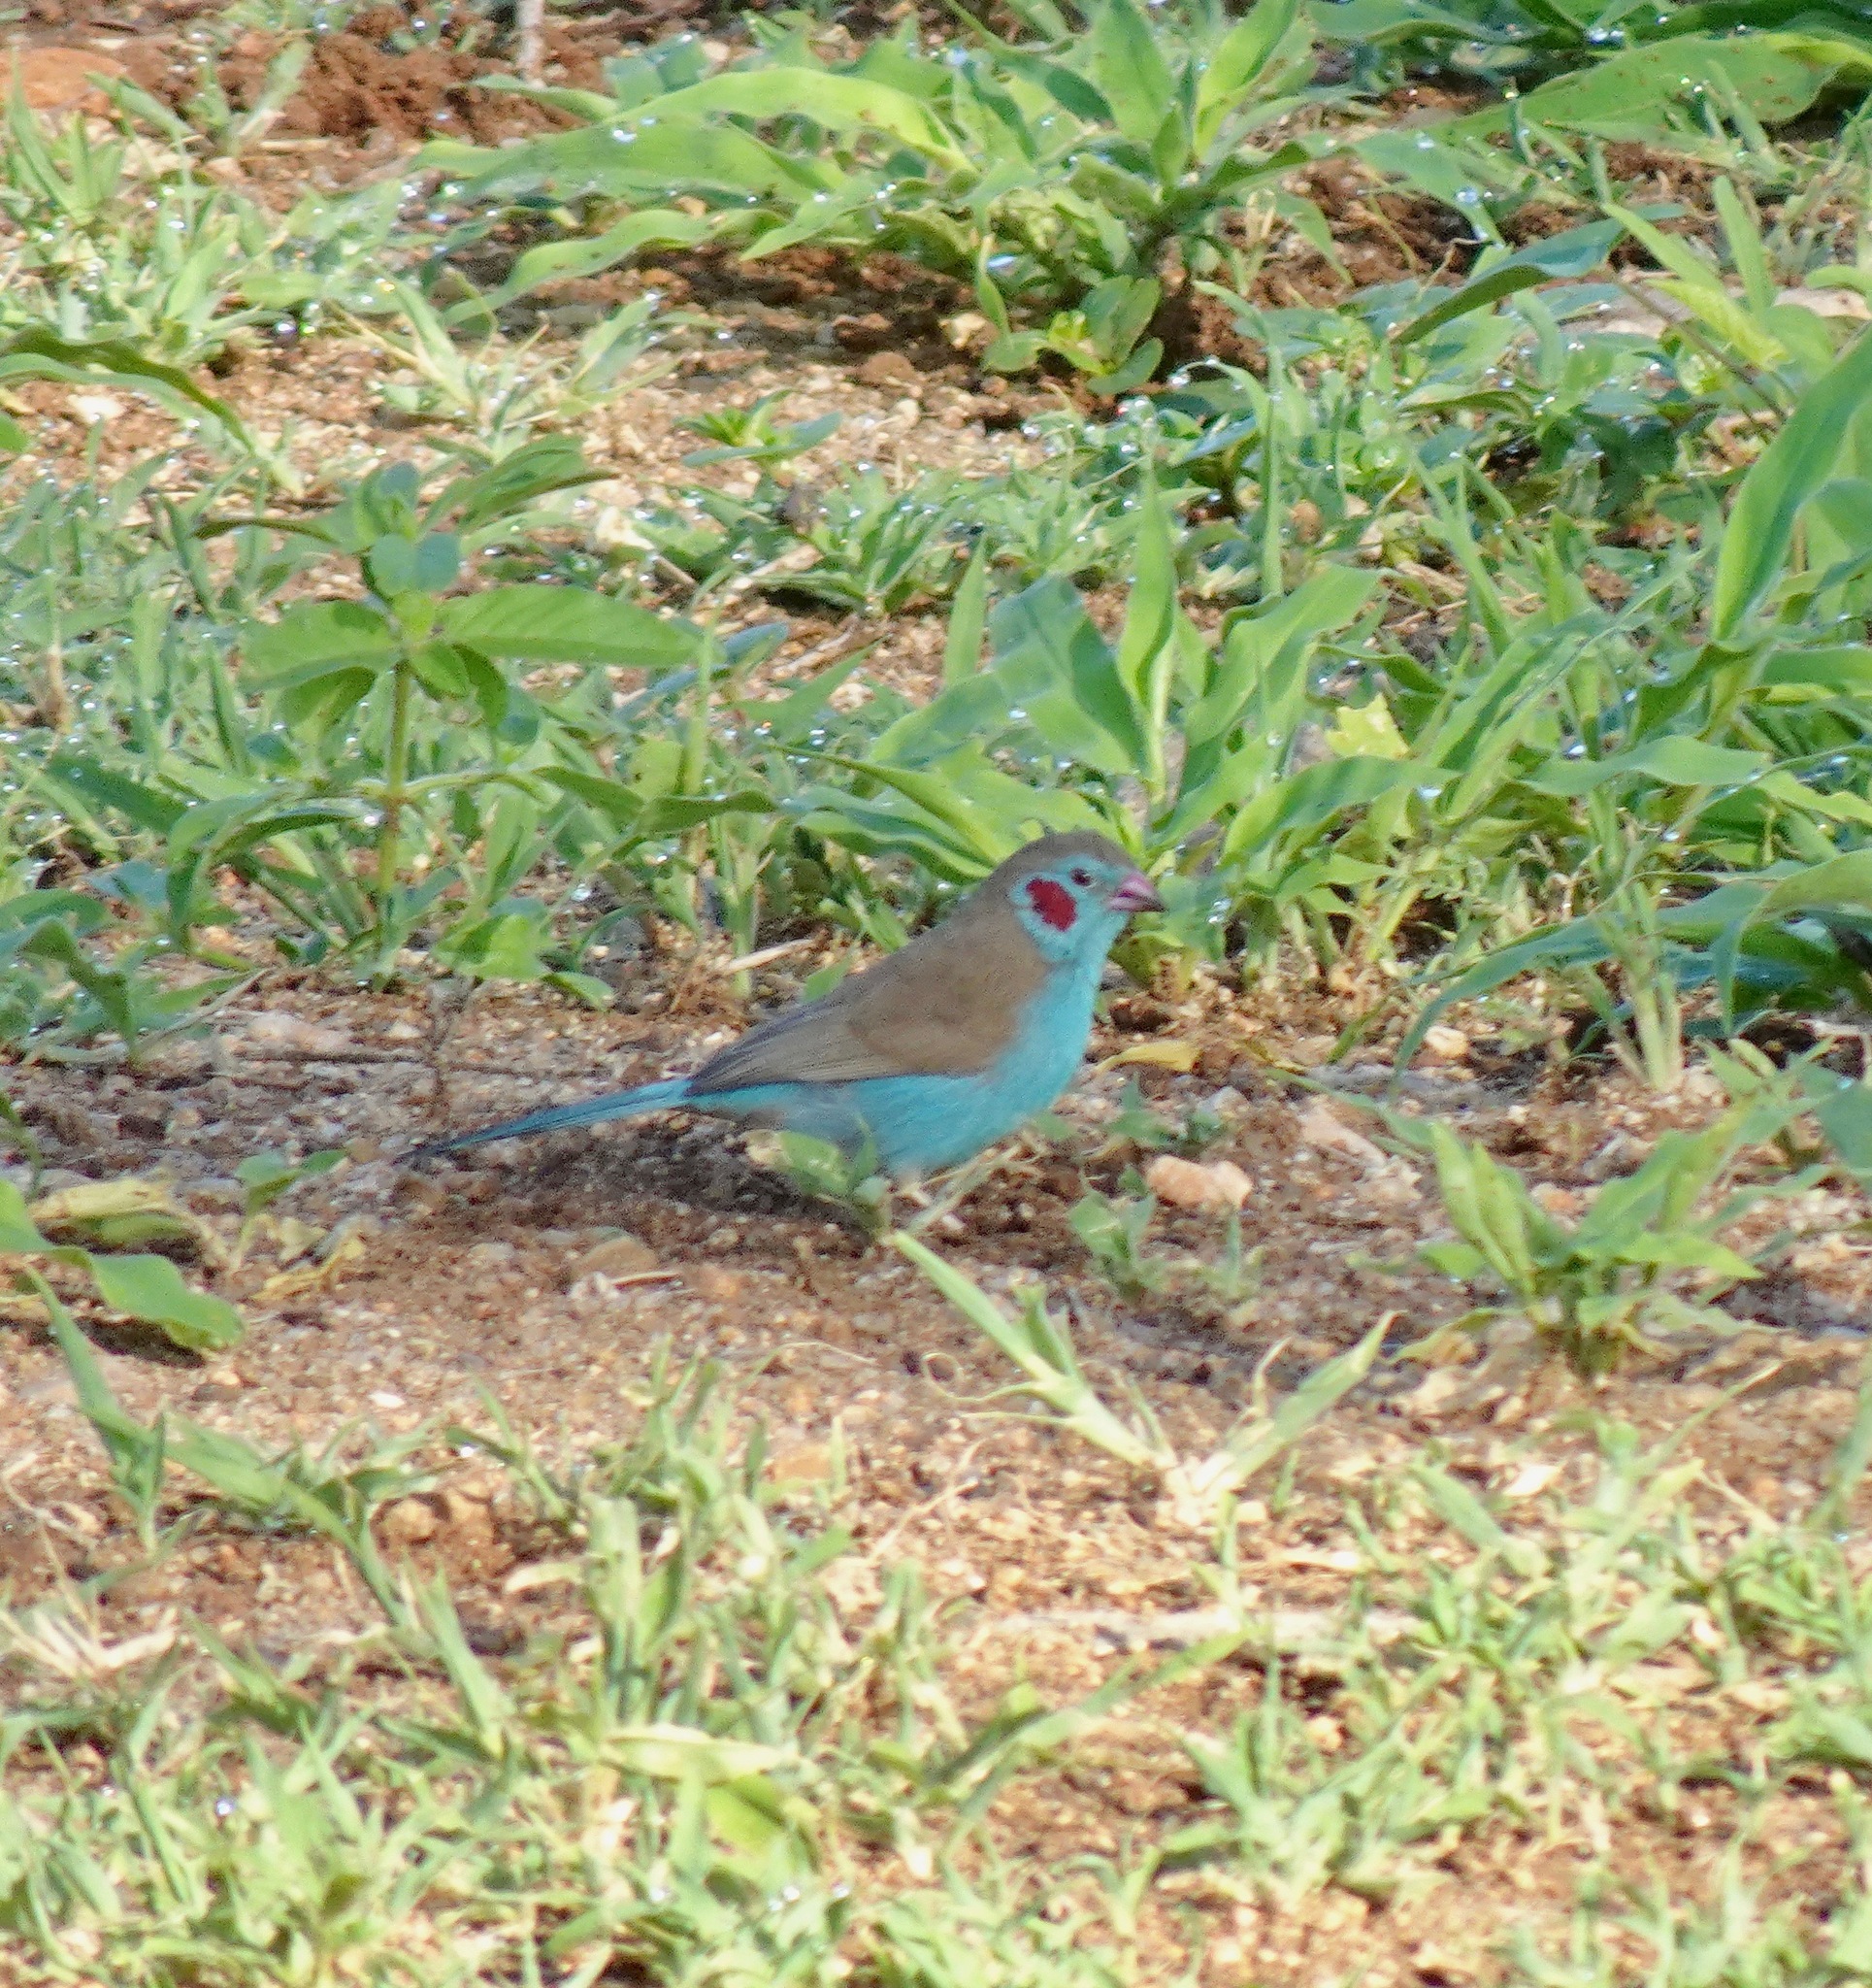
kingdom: Animalia
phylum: Chordata
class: Aves
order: Passeriformes
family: Estrildidae
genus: Uraeginthus
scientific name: Uraeginthus bengalus
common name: Red-cheeked cordon-bleu
